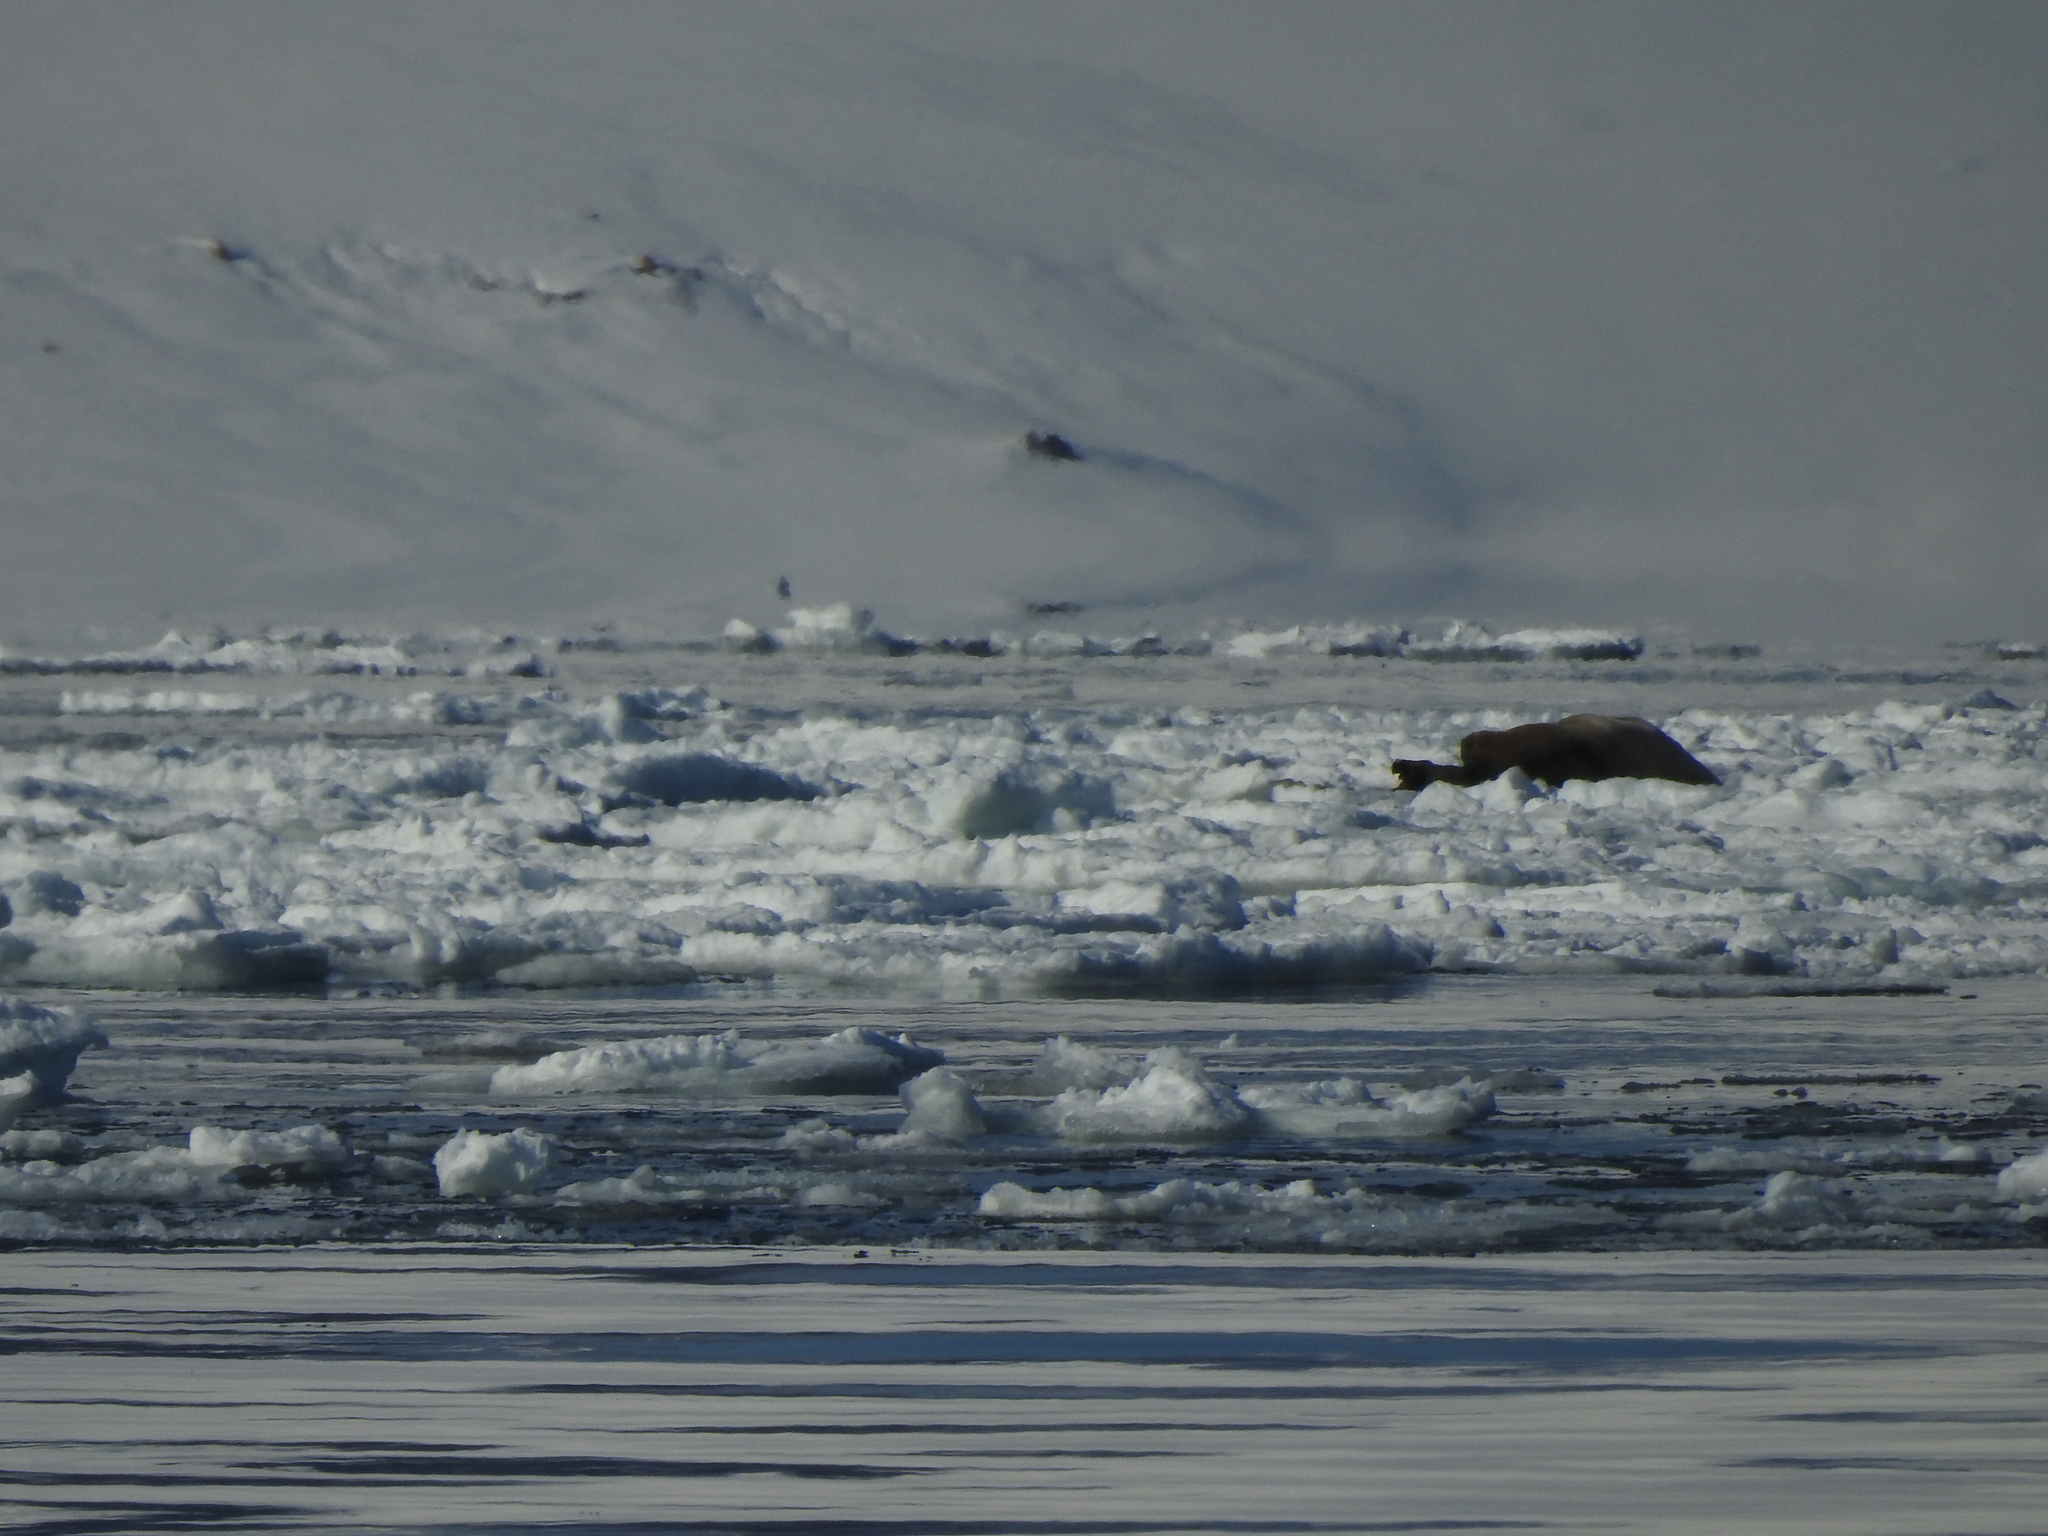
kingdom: Animalia
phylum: Chordata
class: Mammalia
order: Carnivora
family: Odobenidae
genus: Odobenus
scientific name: Odobenus rosmarus
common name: Walrus
